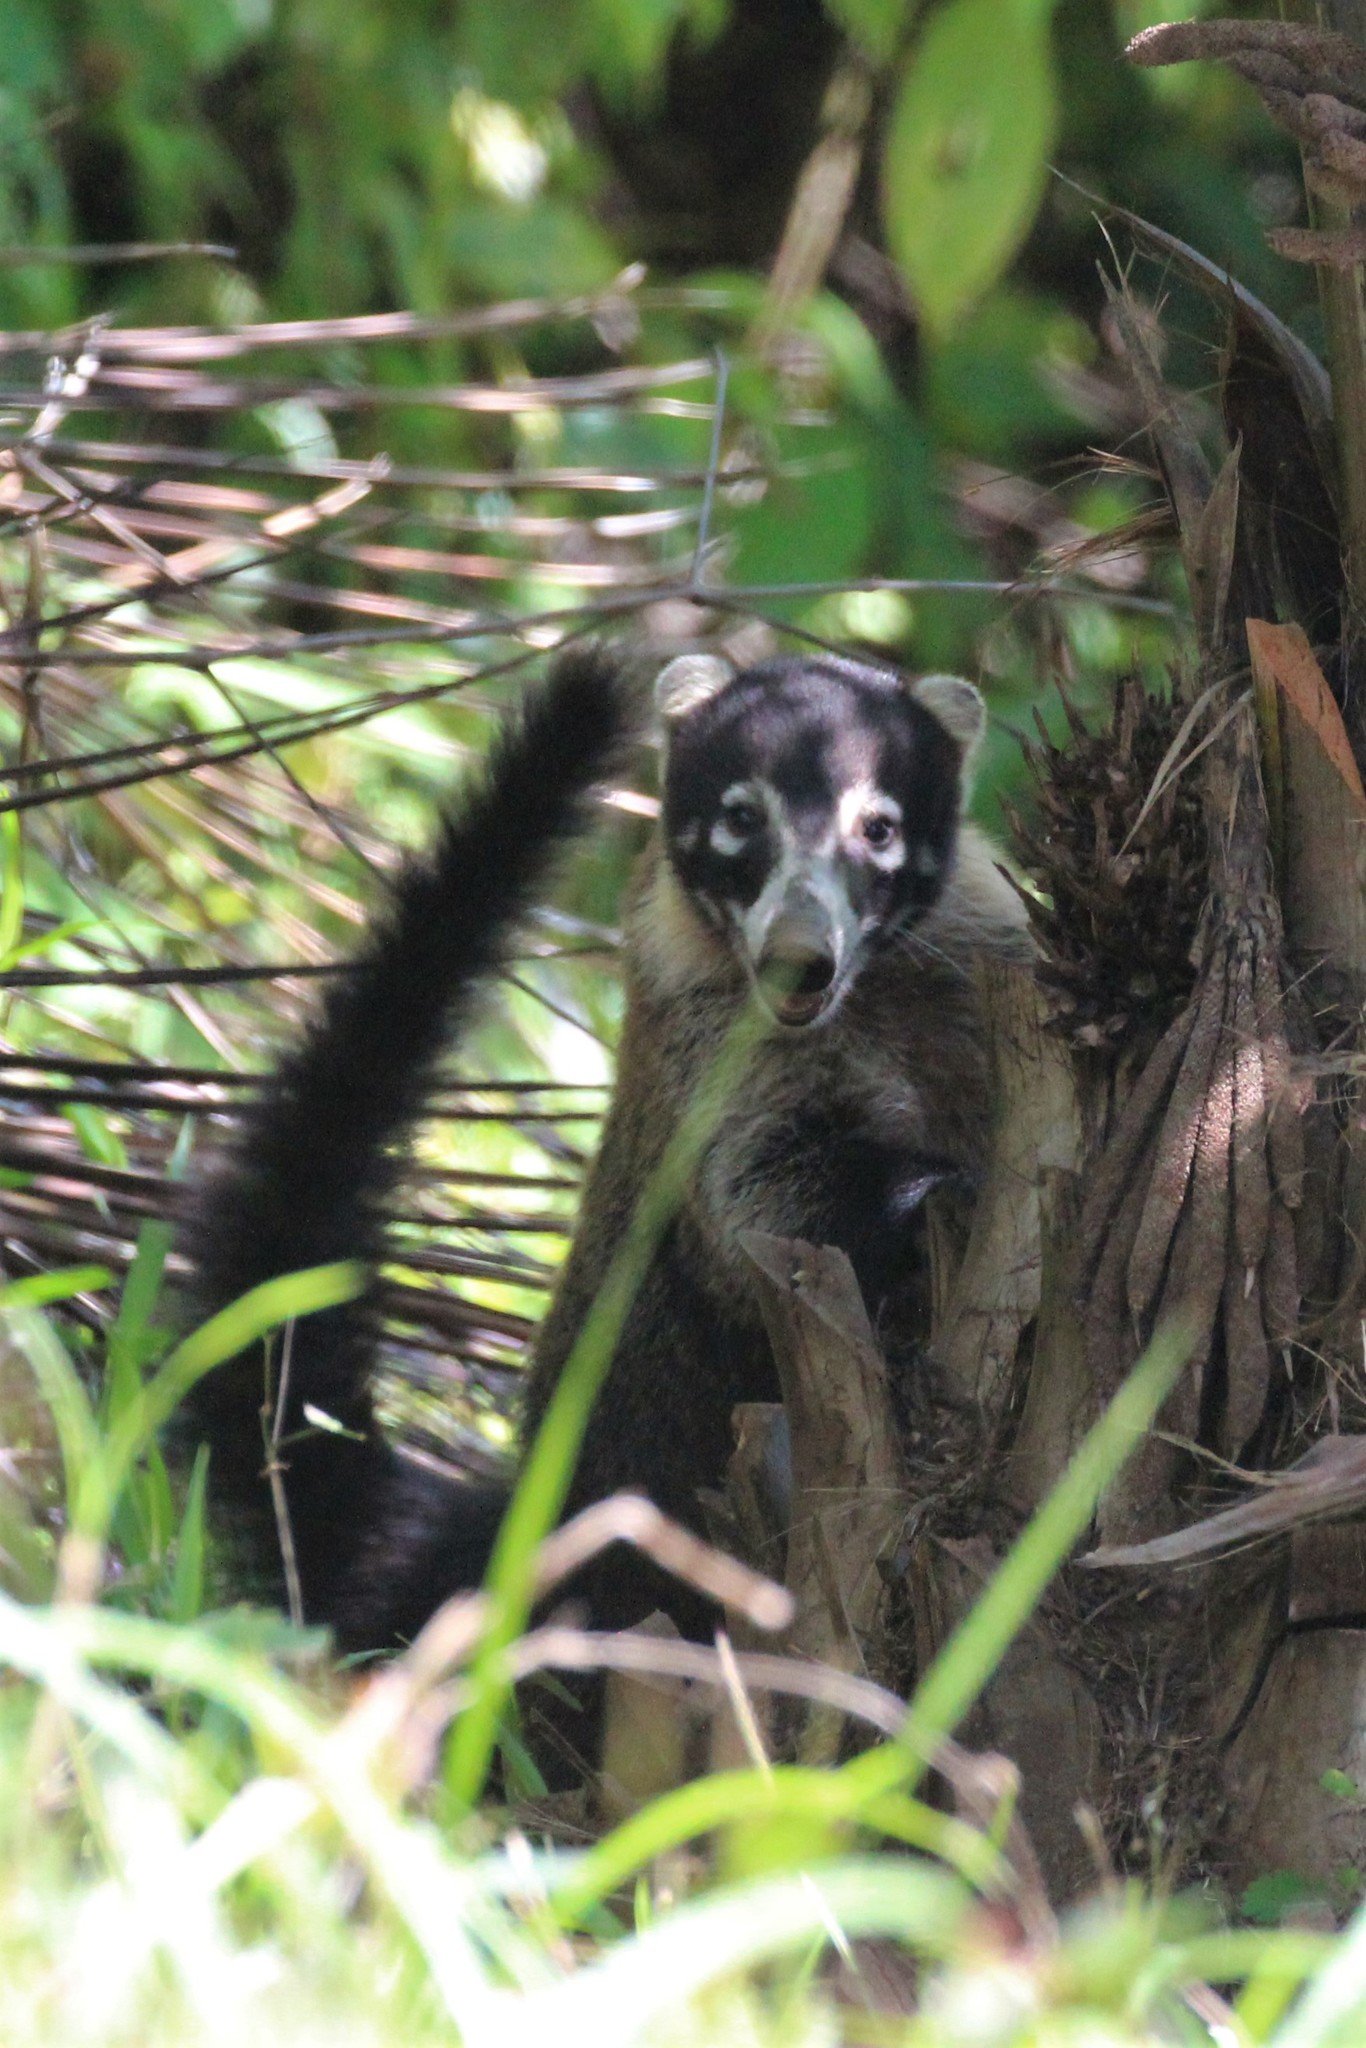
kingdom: Animalia
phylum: Chordata
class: Mammalia
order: Carnivora
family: Procyonidae
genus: Nasua
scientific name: Nasua narica
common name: White-nosed coati
